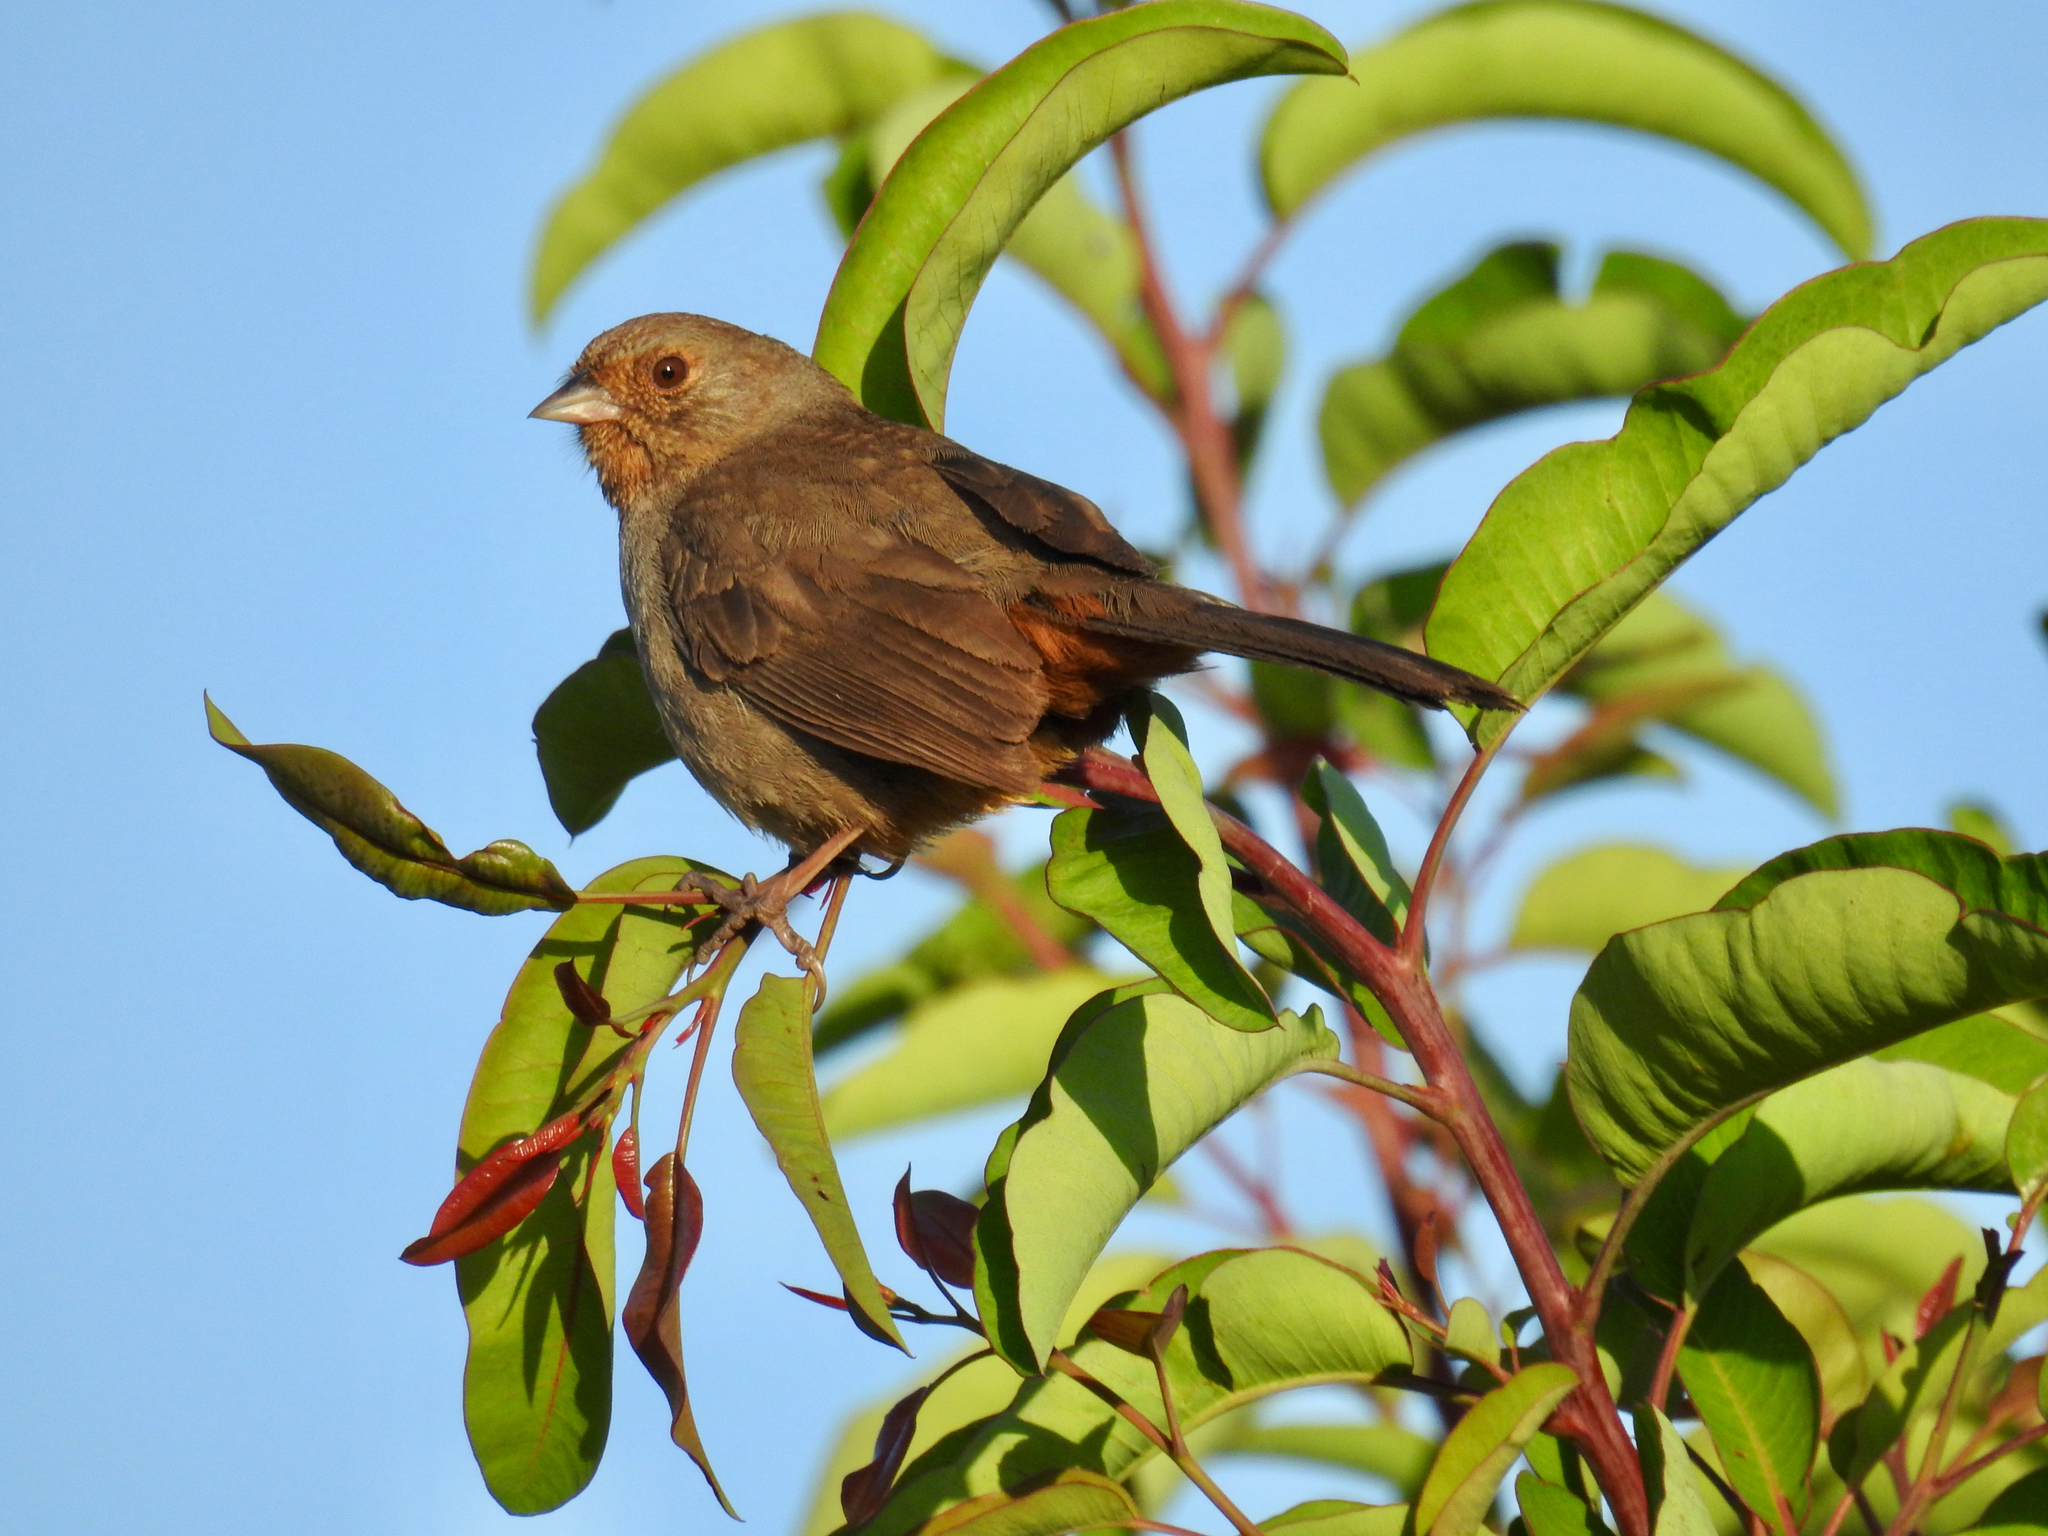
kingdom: Animalia
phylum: Chordata
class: Aves
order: Passeriformes
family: Passerellidae
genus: Melozone
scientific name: Melozone crissalis
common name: California towhee
